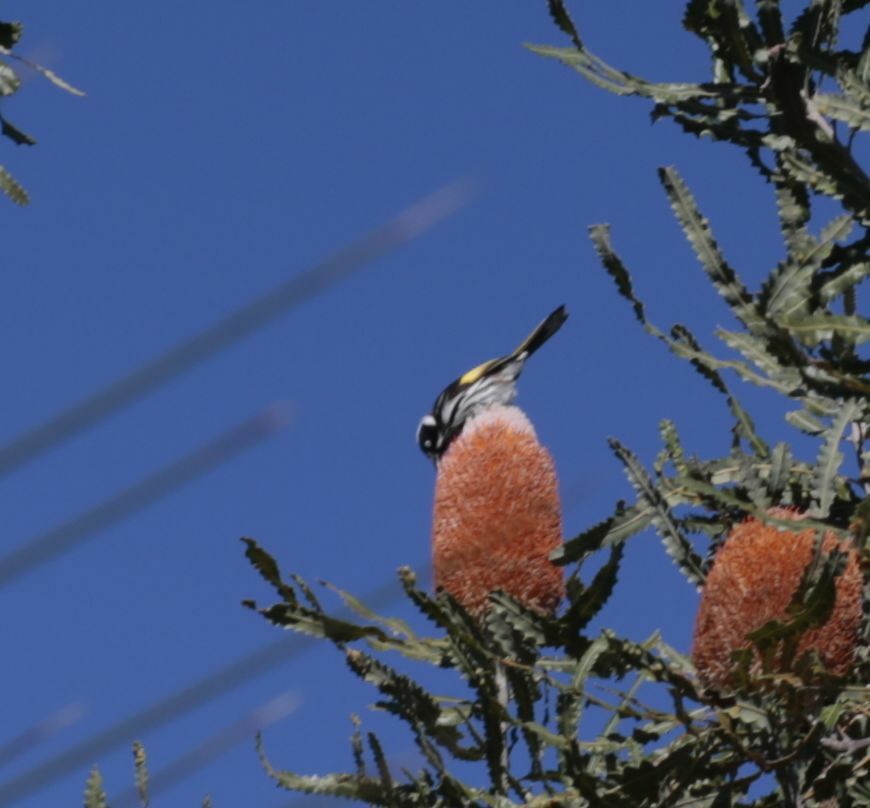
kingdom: Animalia
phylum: Chordata
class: Aves
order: Passeriformes
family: Meliphagidae
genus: Phylidonyris
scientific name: Phylidonyris novaehollandiae
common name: New holland honeyeater
